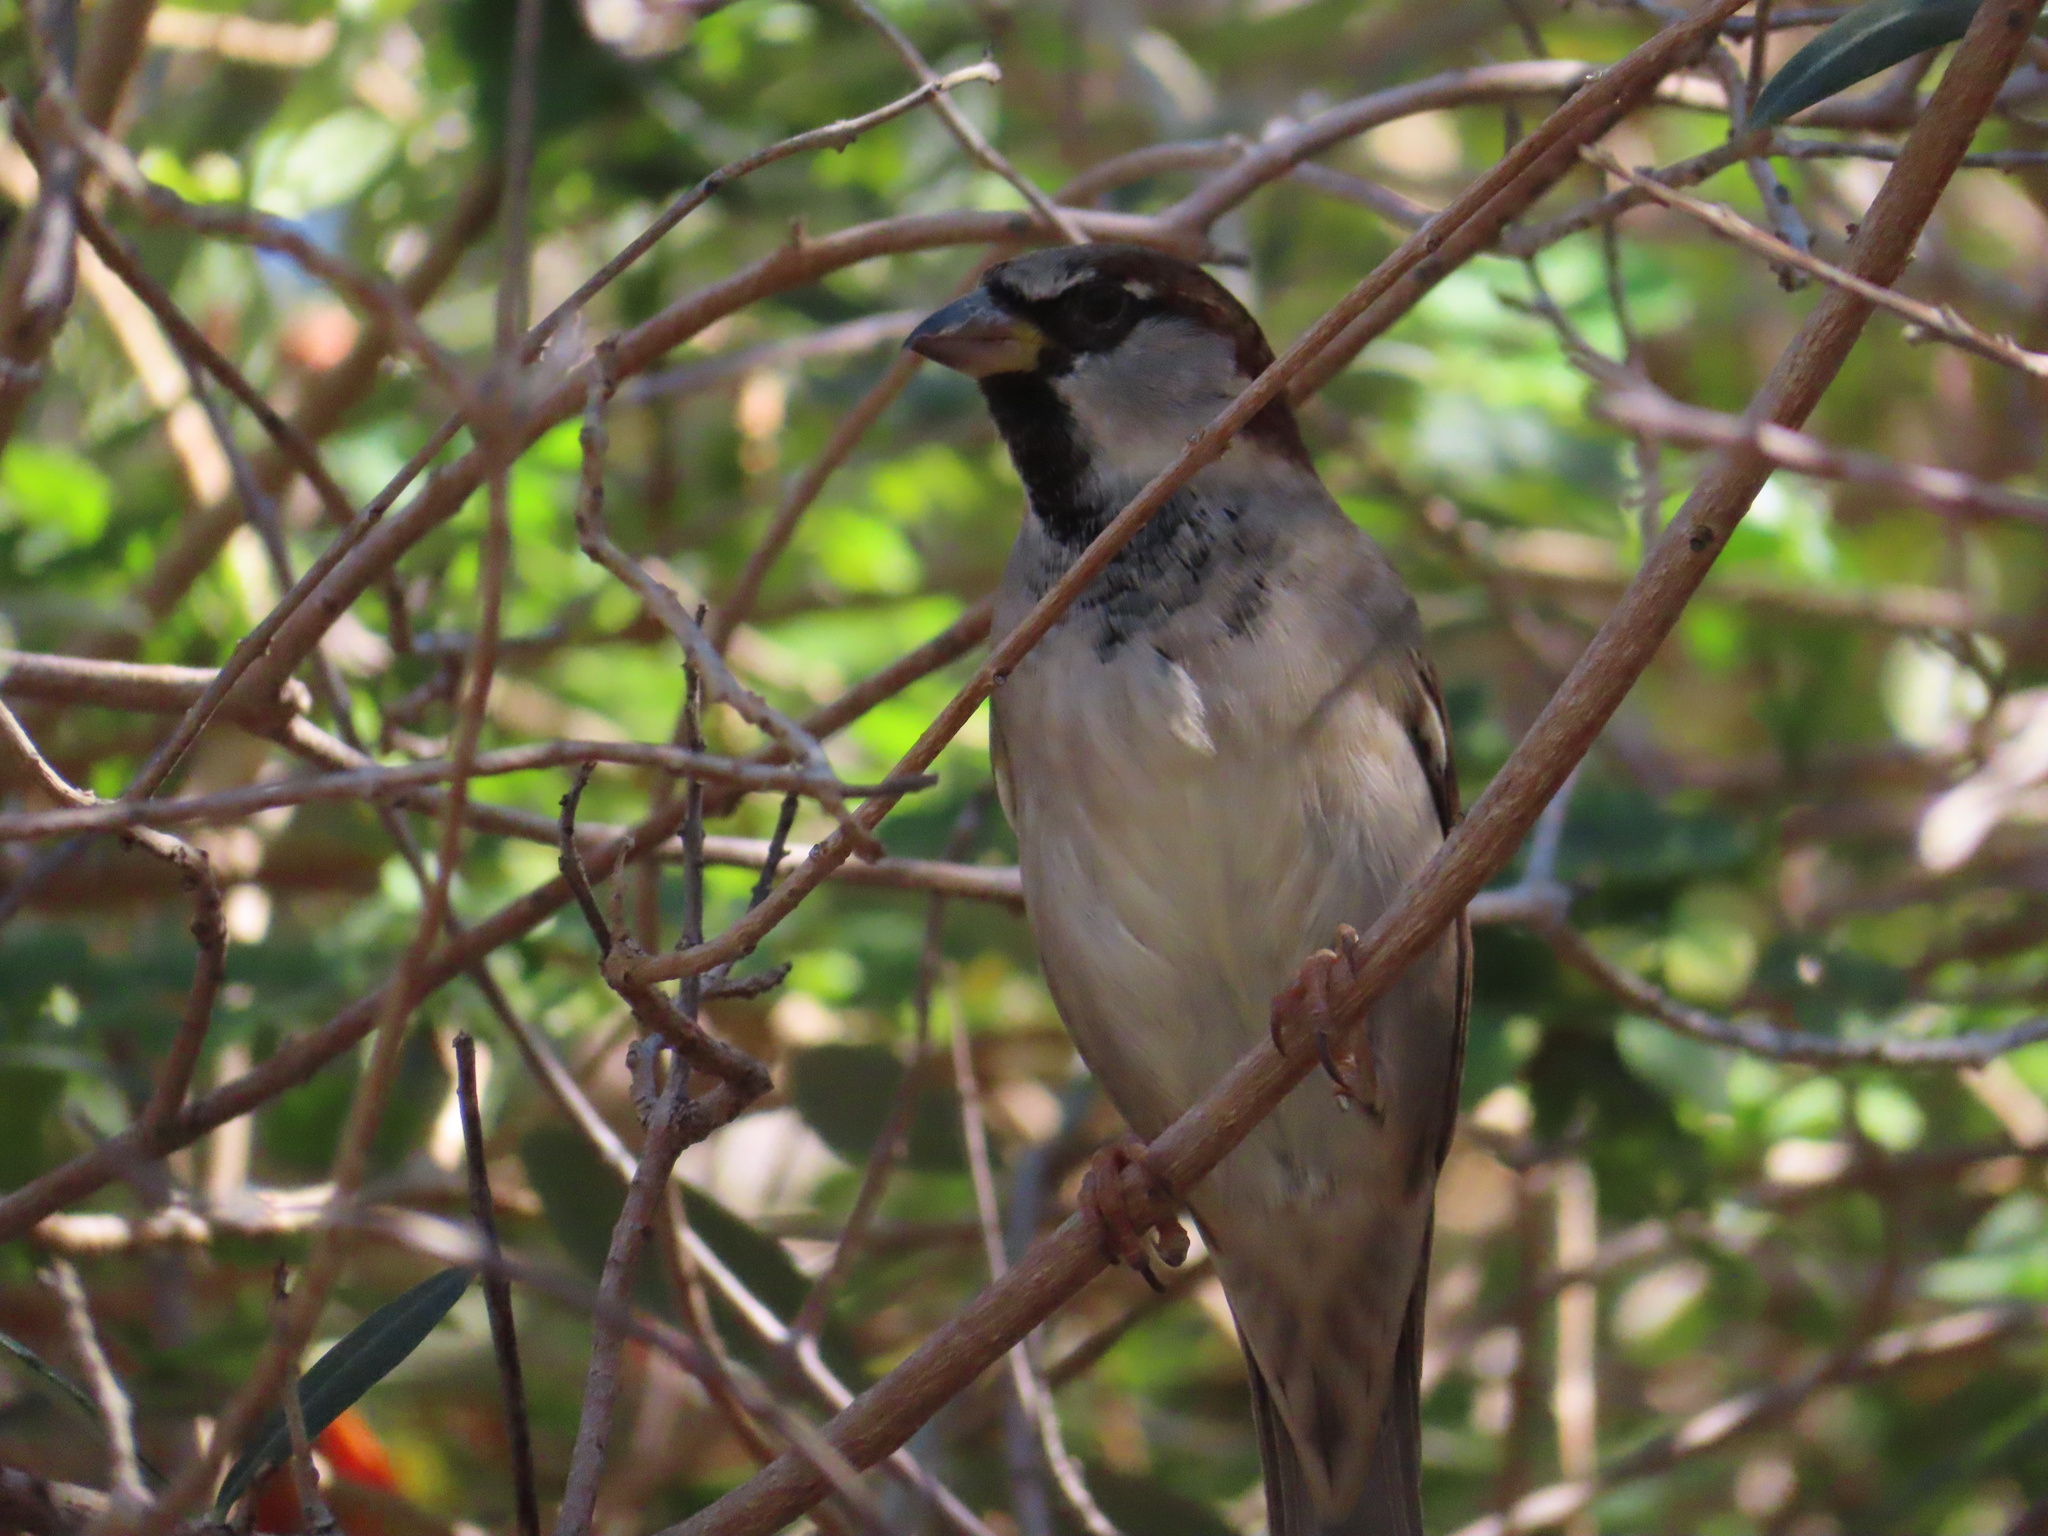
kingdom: Animalia
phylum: Chordata
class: Aves
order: Passeriformes
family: Passeridae
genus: Passer
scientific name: Passer domesticus
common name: House sparrow
